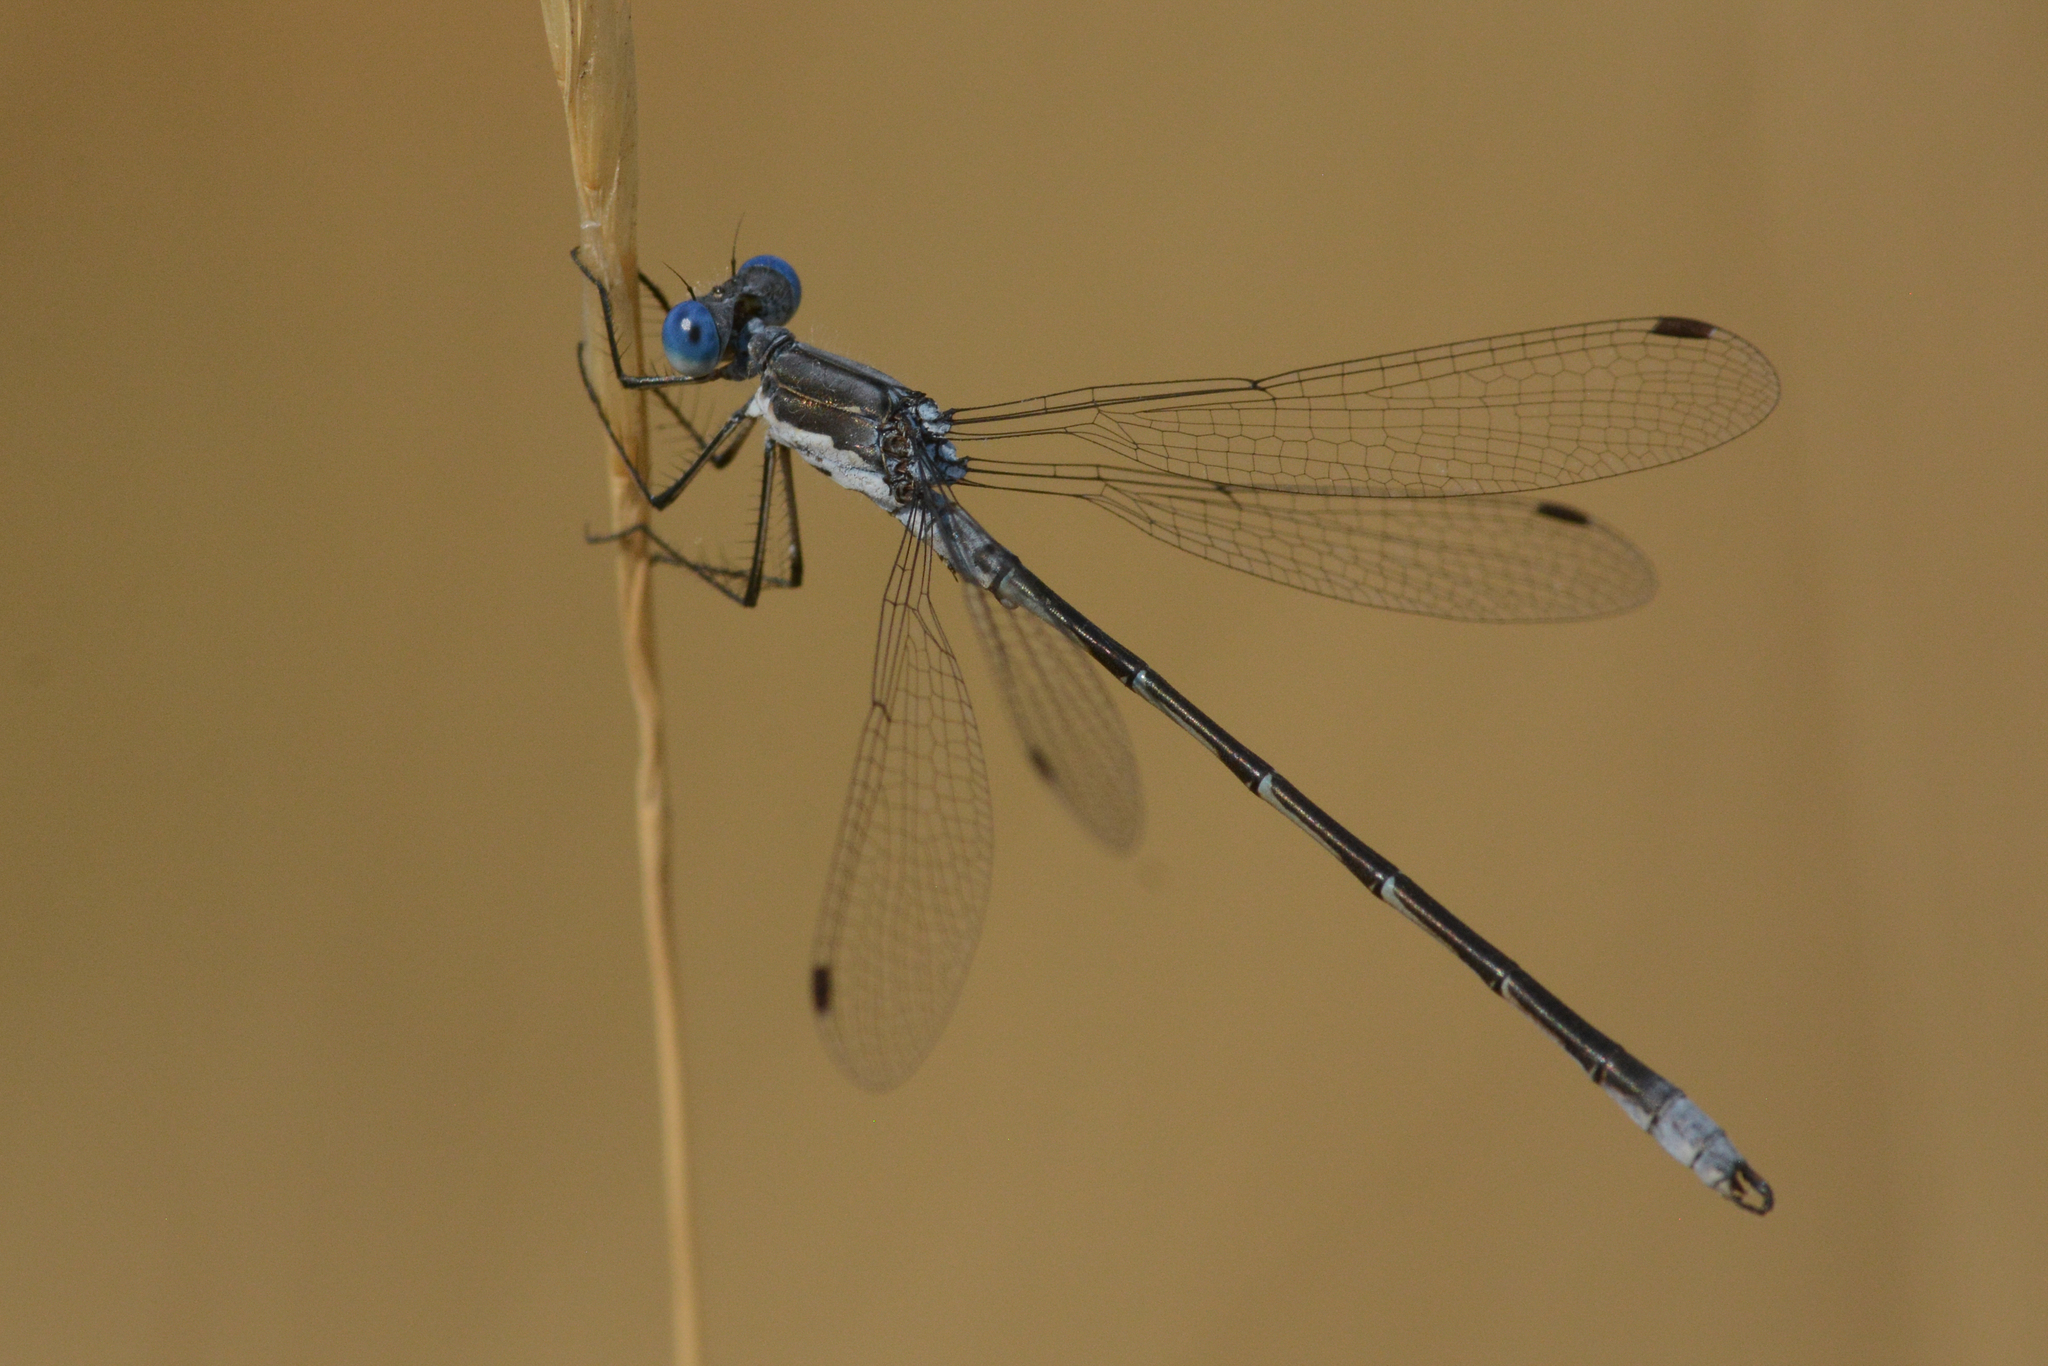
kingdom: Animalia
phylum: Arthropoda
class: Insecta
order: Odonata
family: Lestidae
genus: Lestes
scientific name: Lestes congener
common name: Spotted spreadwing
